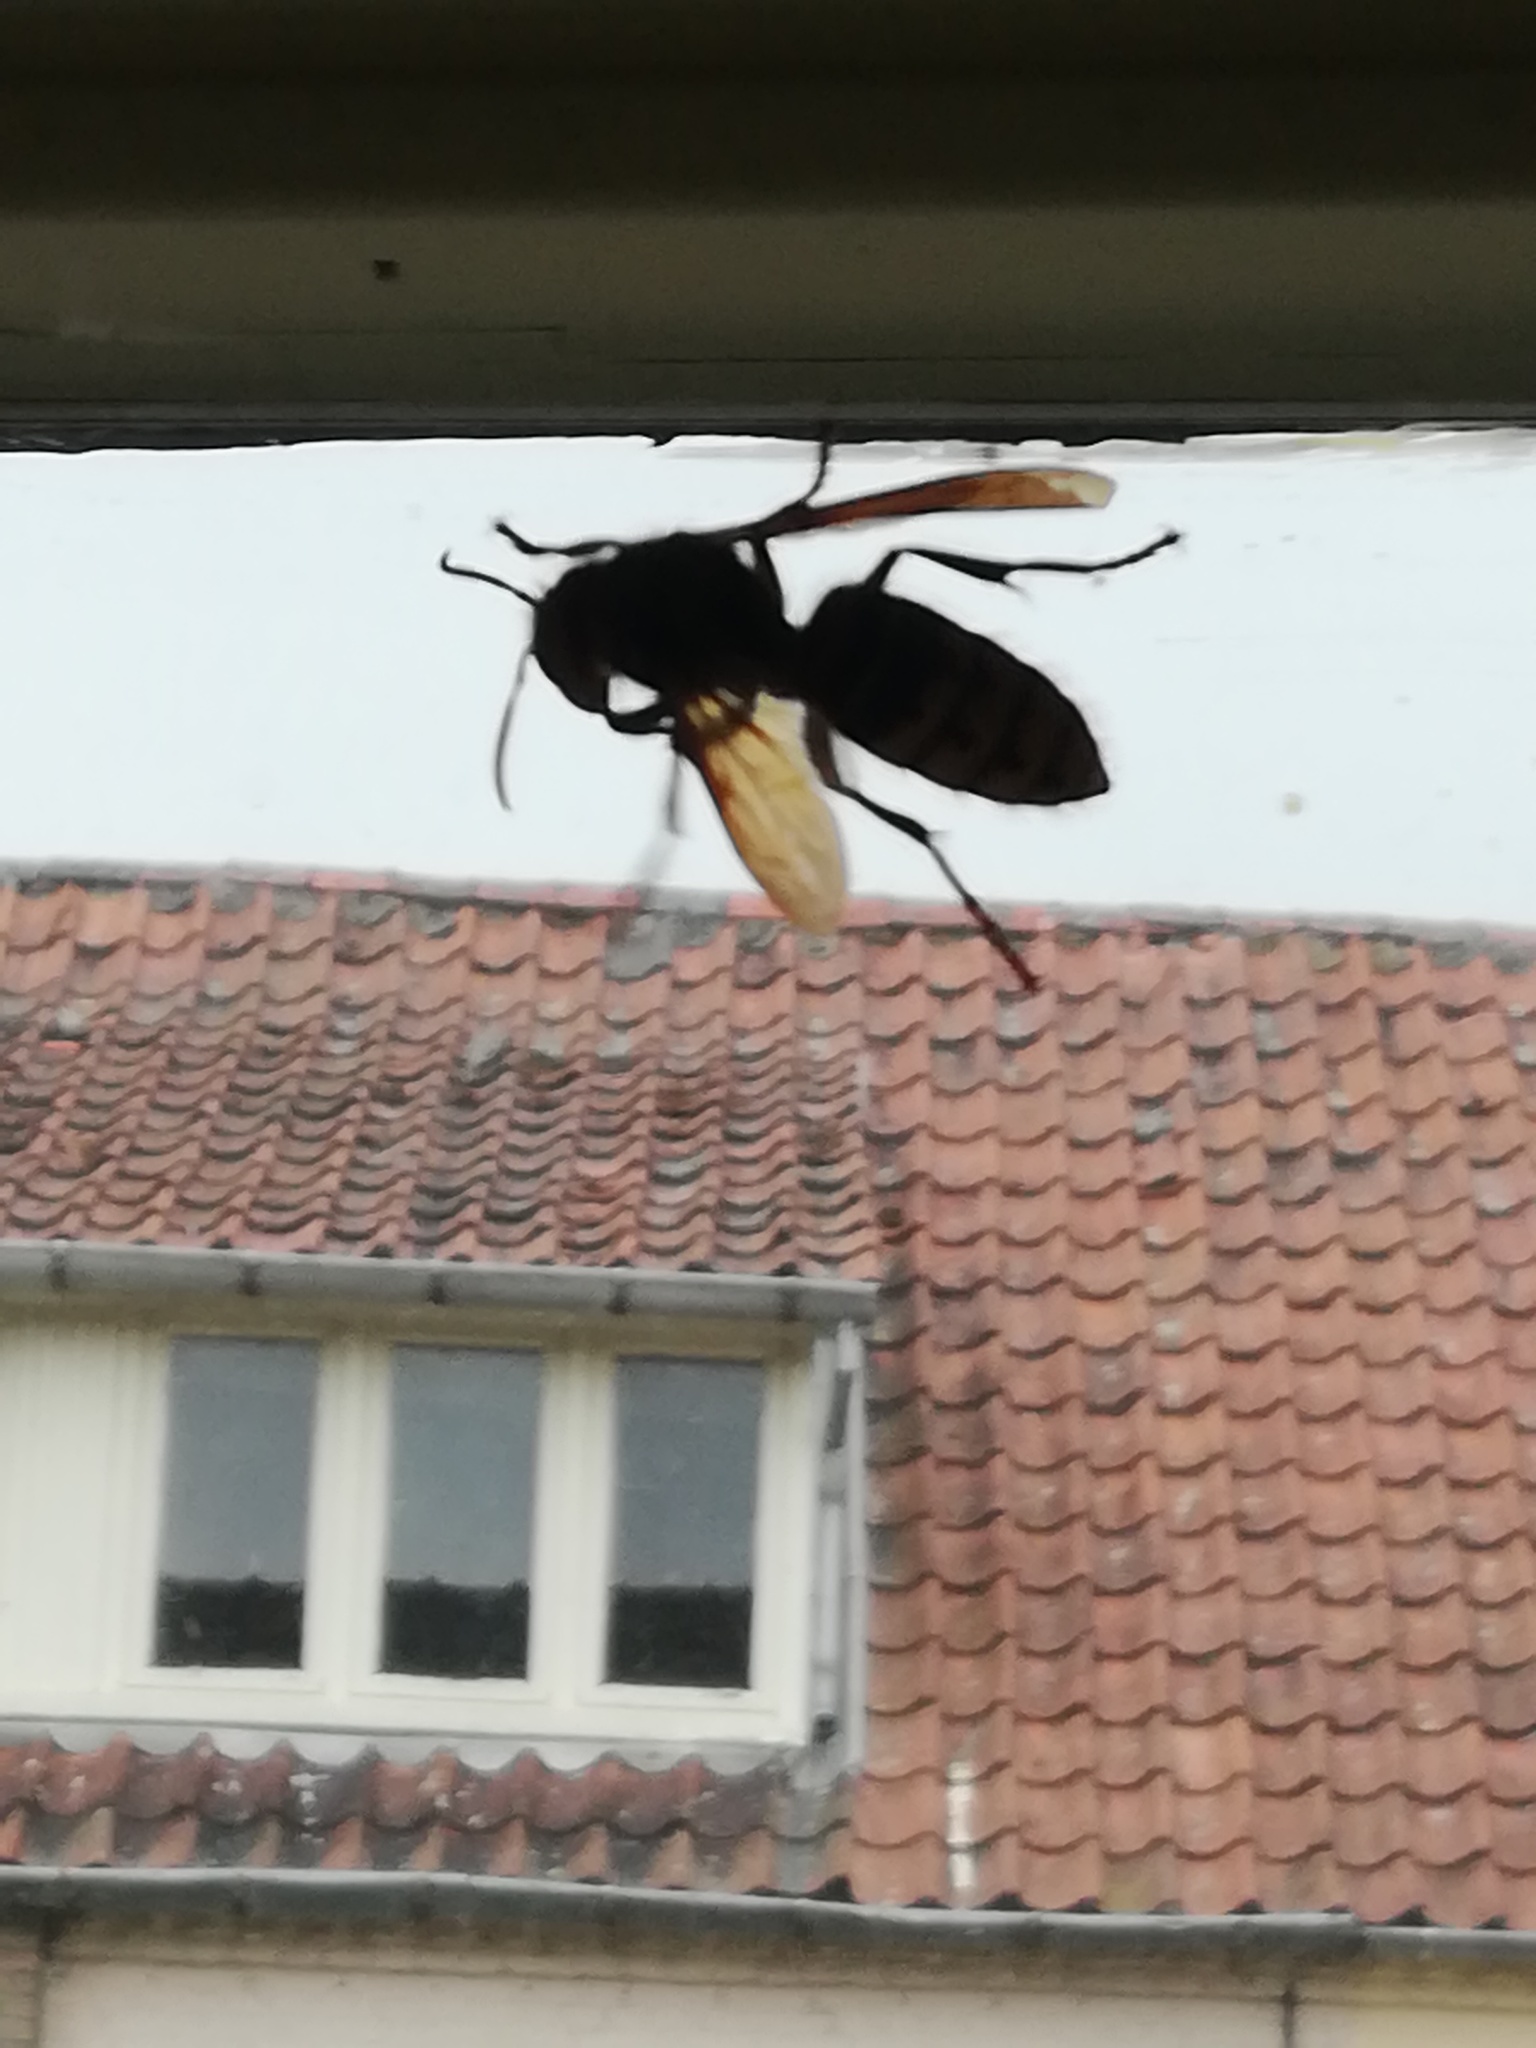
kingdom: Animalia
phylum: Arthropoda
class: Insecta
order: Hymenoptera
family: Vespidae
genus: Vespa
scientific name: Vespa crabro
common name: Hornet
